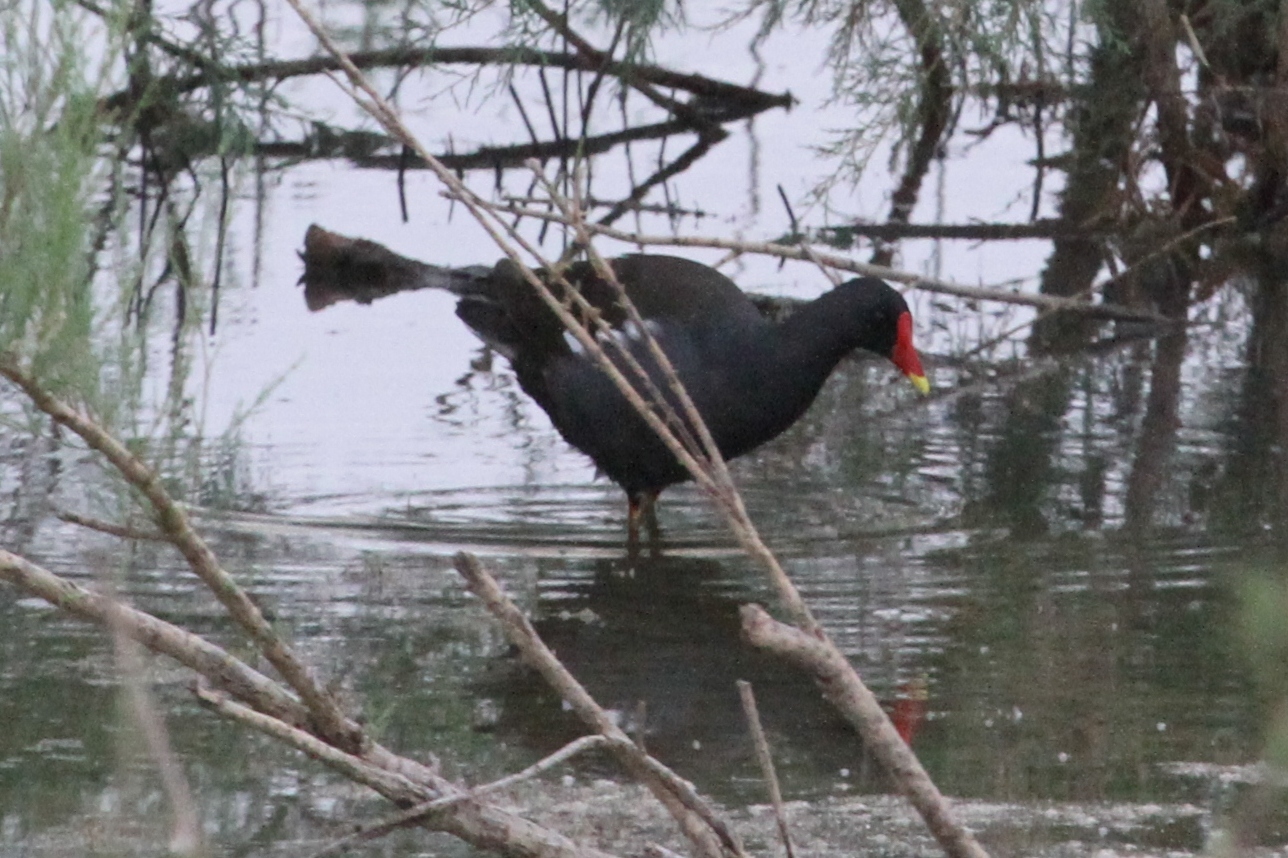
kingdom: Animalia
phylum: Chordata
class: Aves
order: Gruiformes
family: Rallidae
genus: Gallinula
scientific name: Gallinula chloropus
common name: Common moorhen
